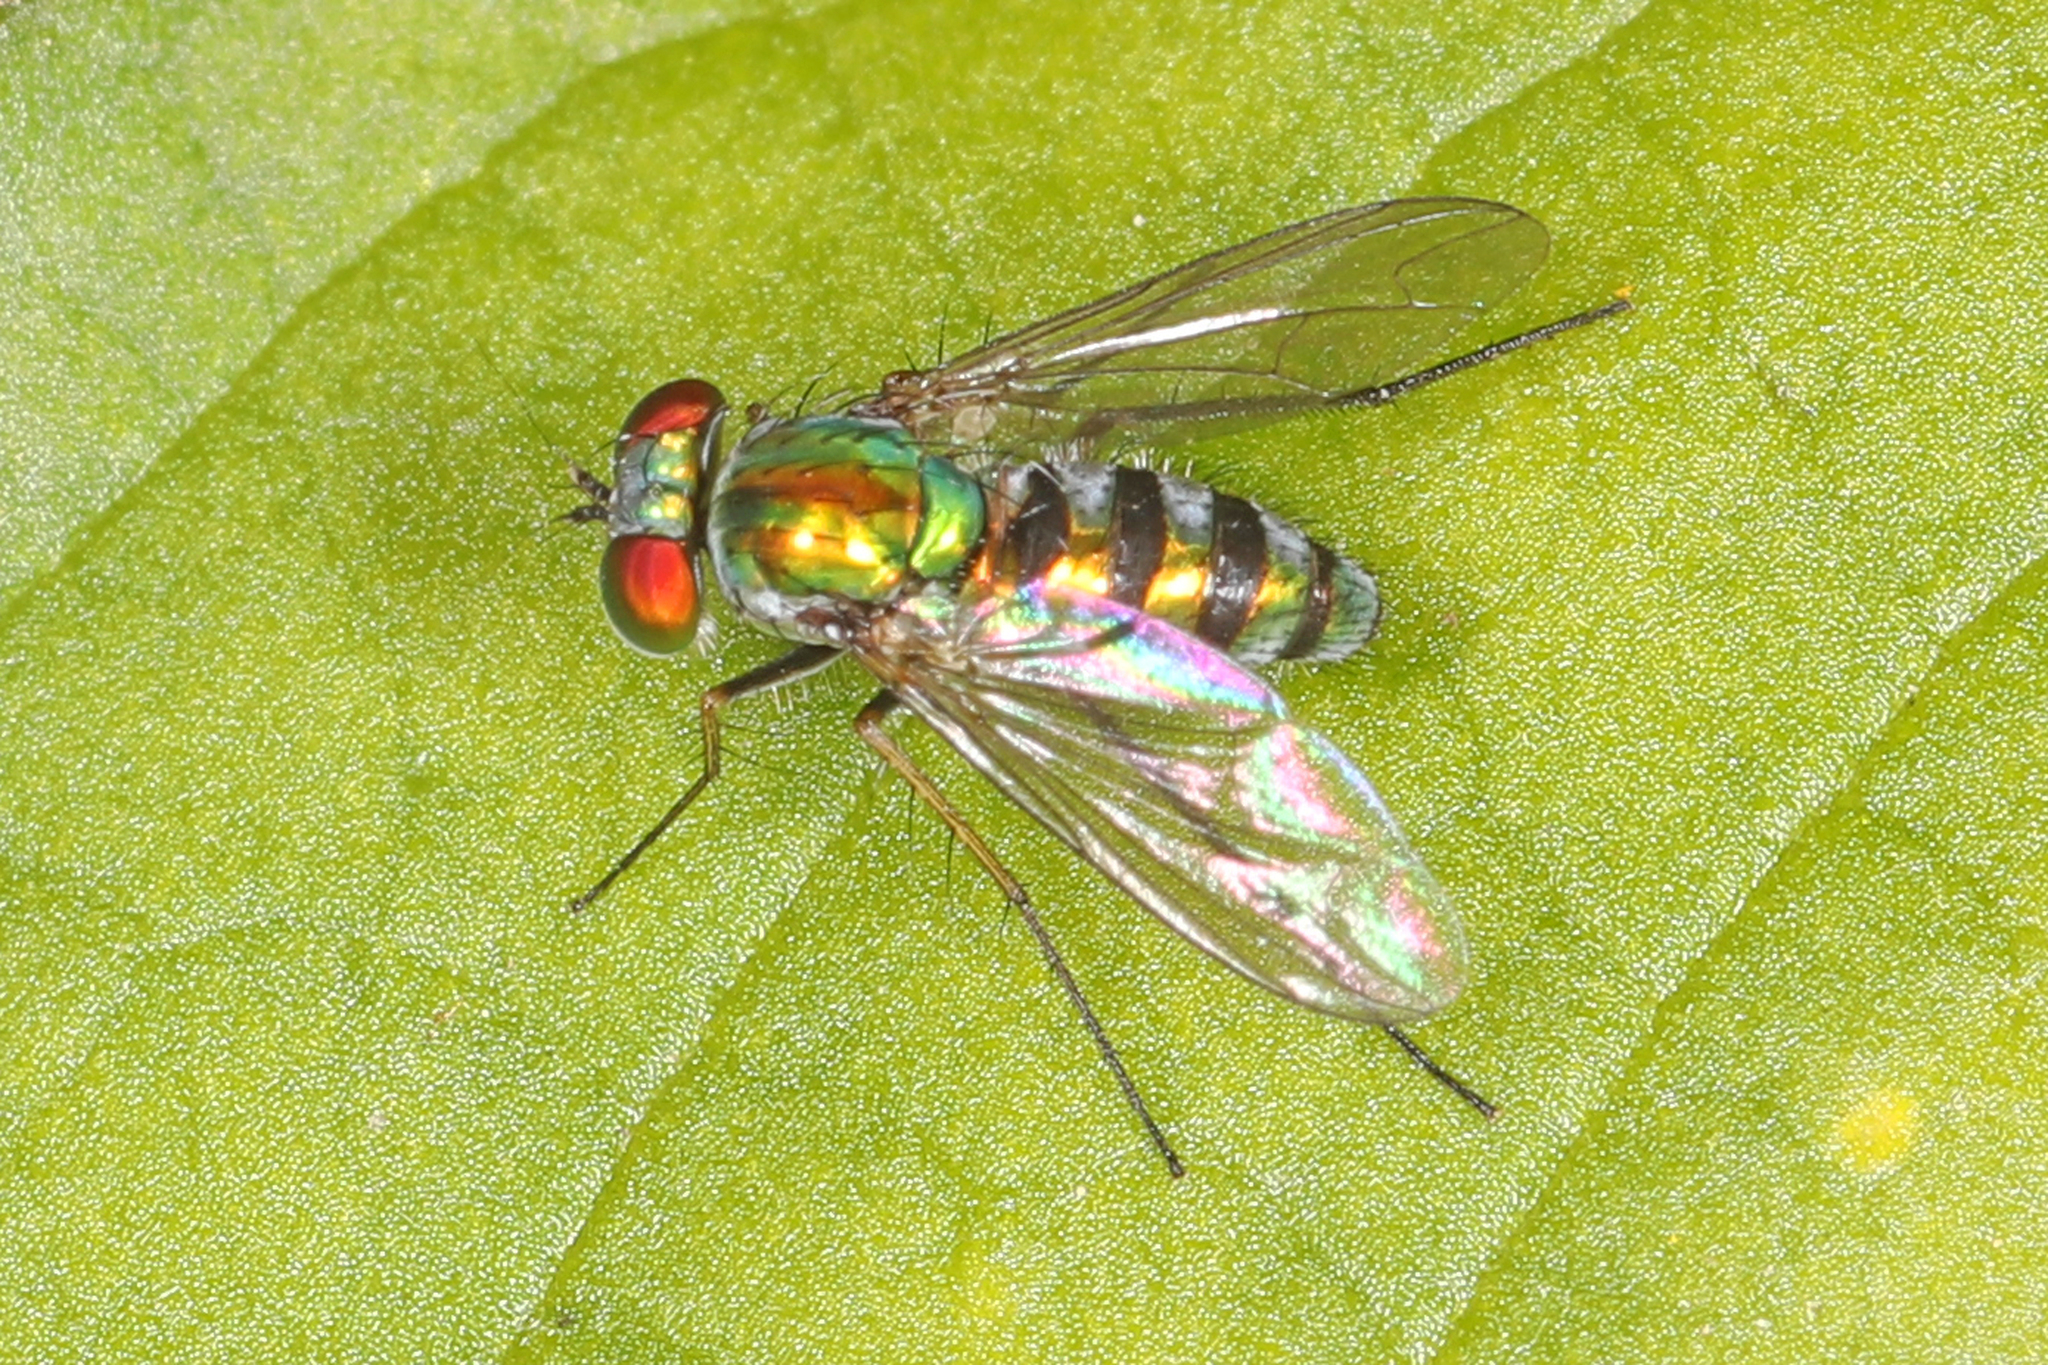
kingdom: Animalia
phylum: Arthropoda
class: Insecta
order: Diptera
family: Dolichopodidae
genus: Condylostylus
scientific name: Condylostylus pruinosus
